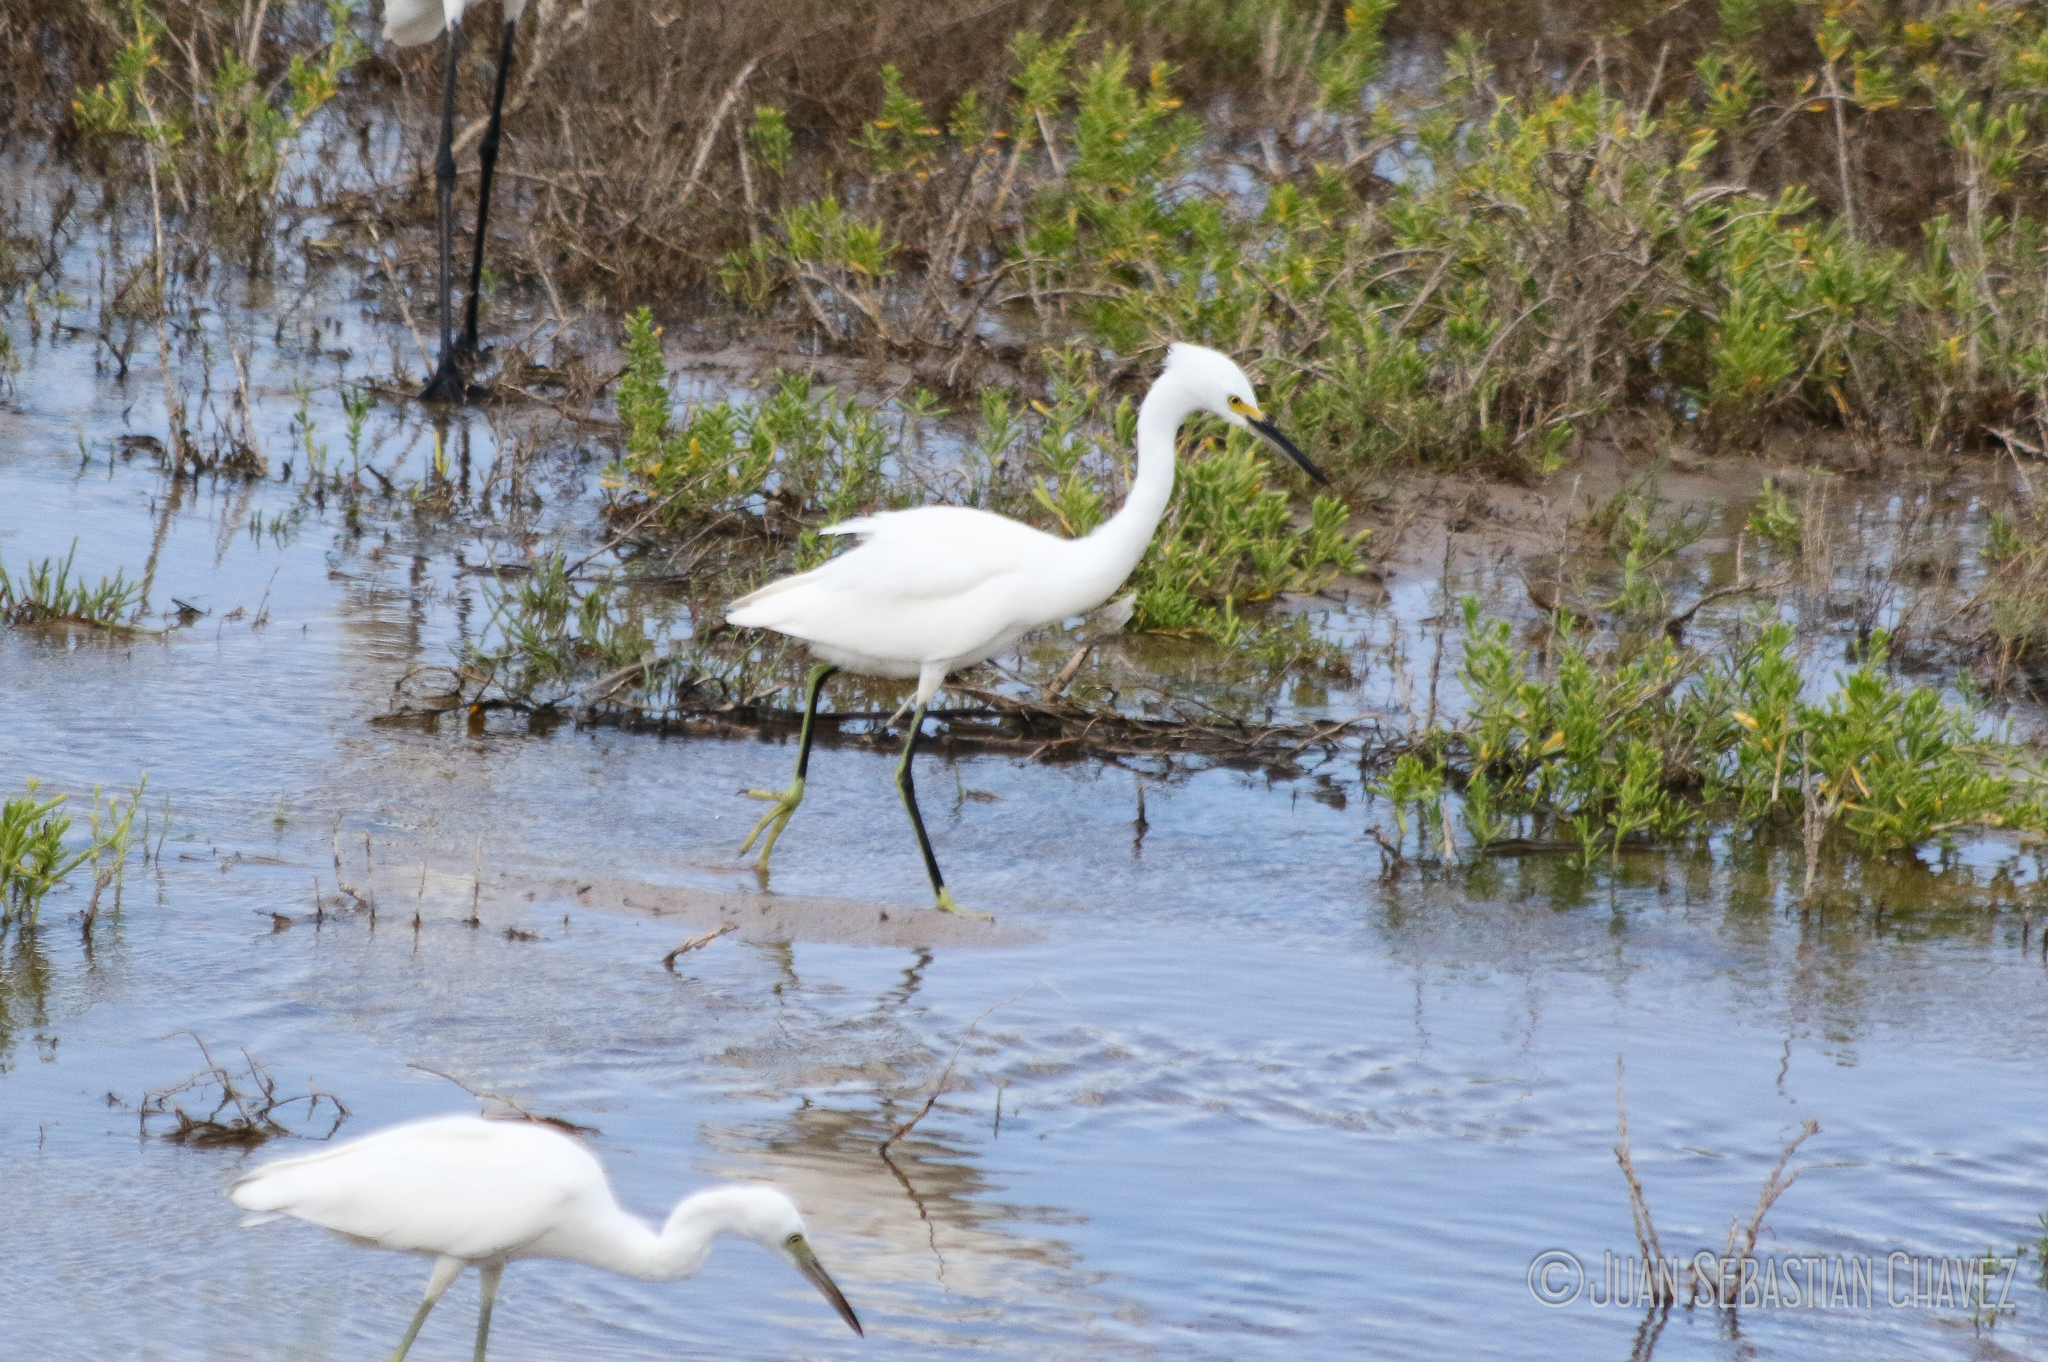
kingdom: Animalia
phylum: Chordata
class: Aves
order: Pelecaniformes
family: Ardeidae
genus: Egretta
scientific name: Egretta thula
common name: Snowy egret
